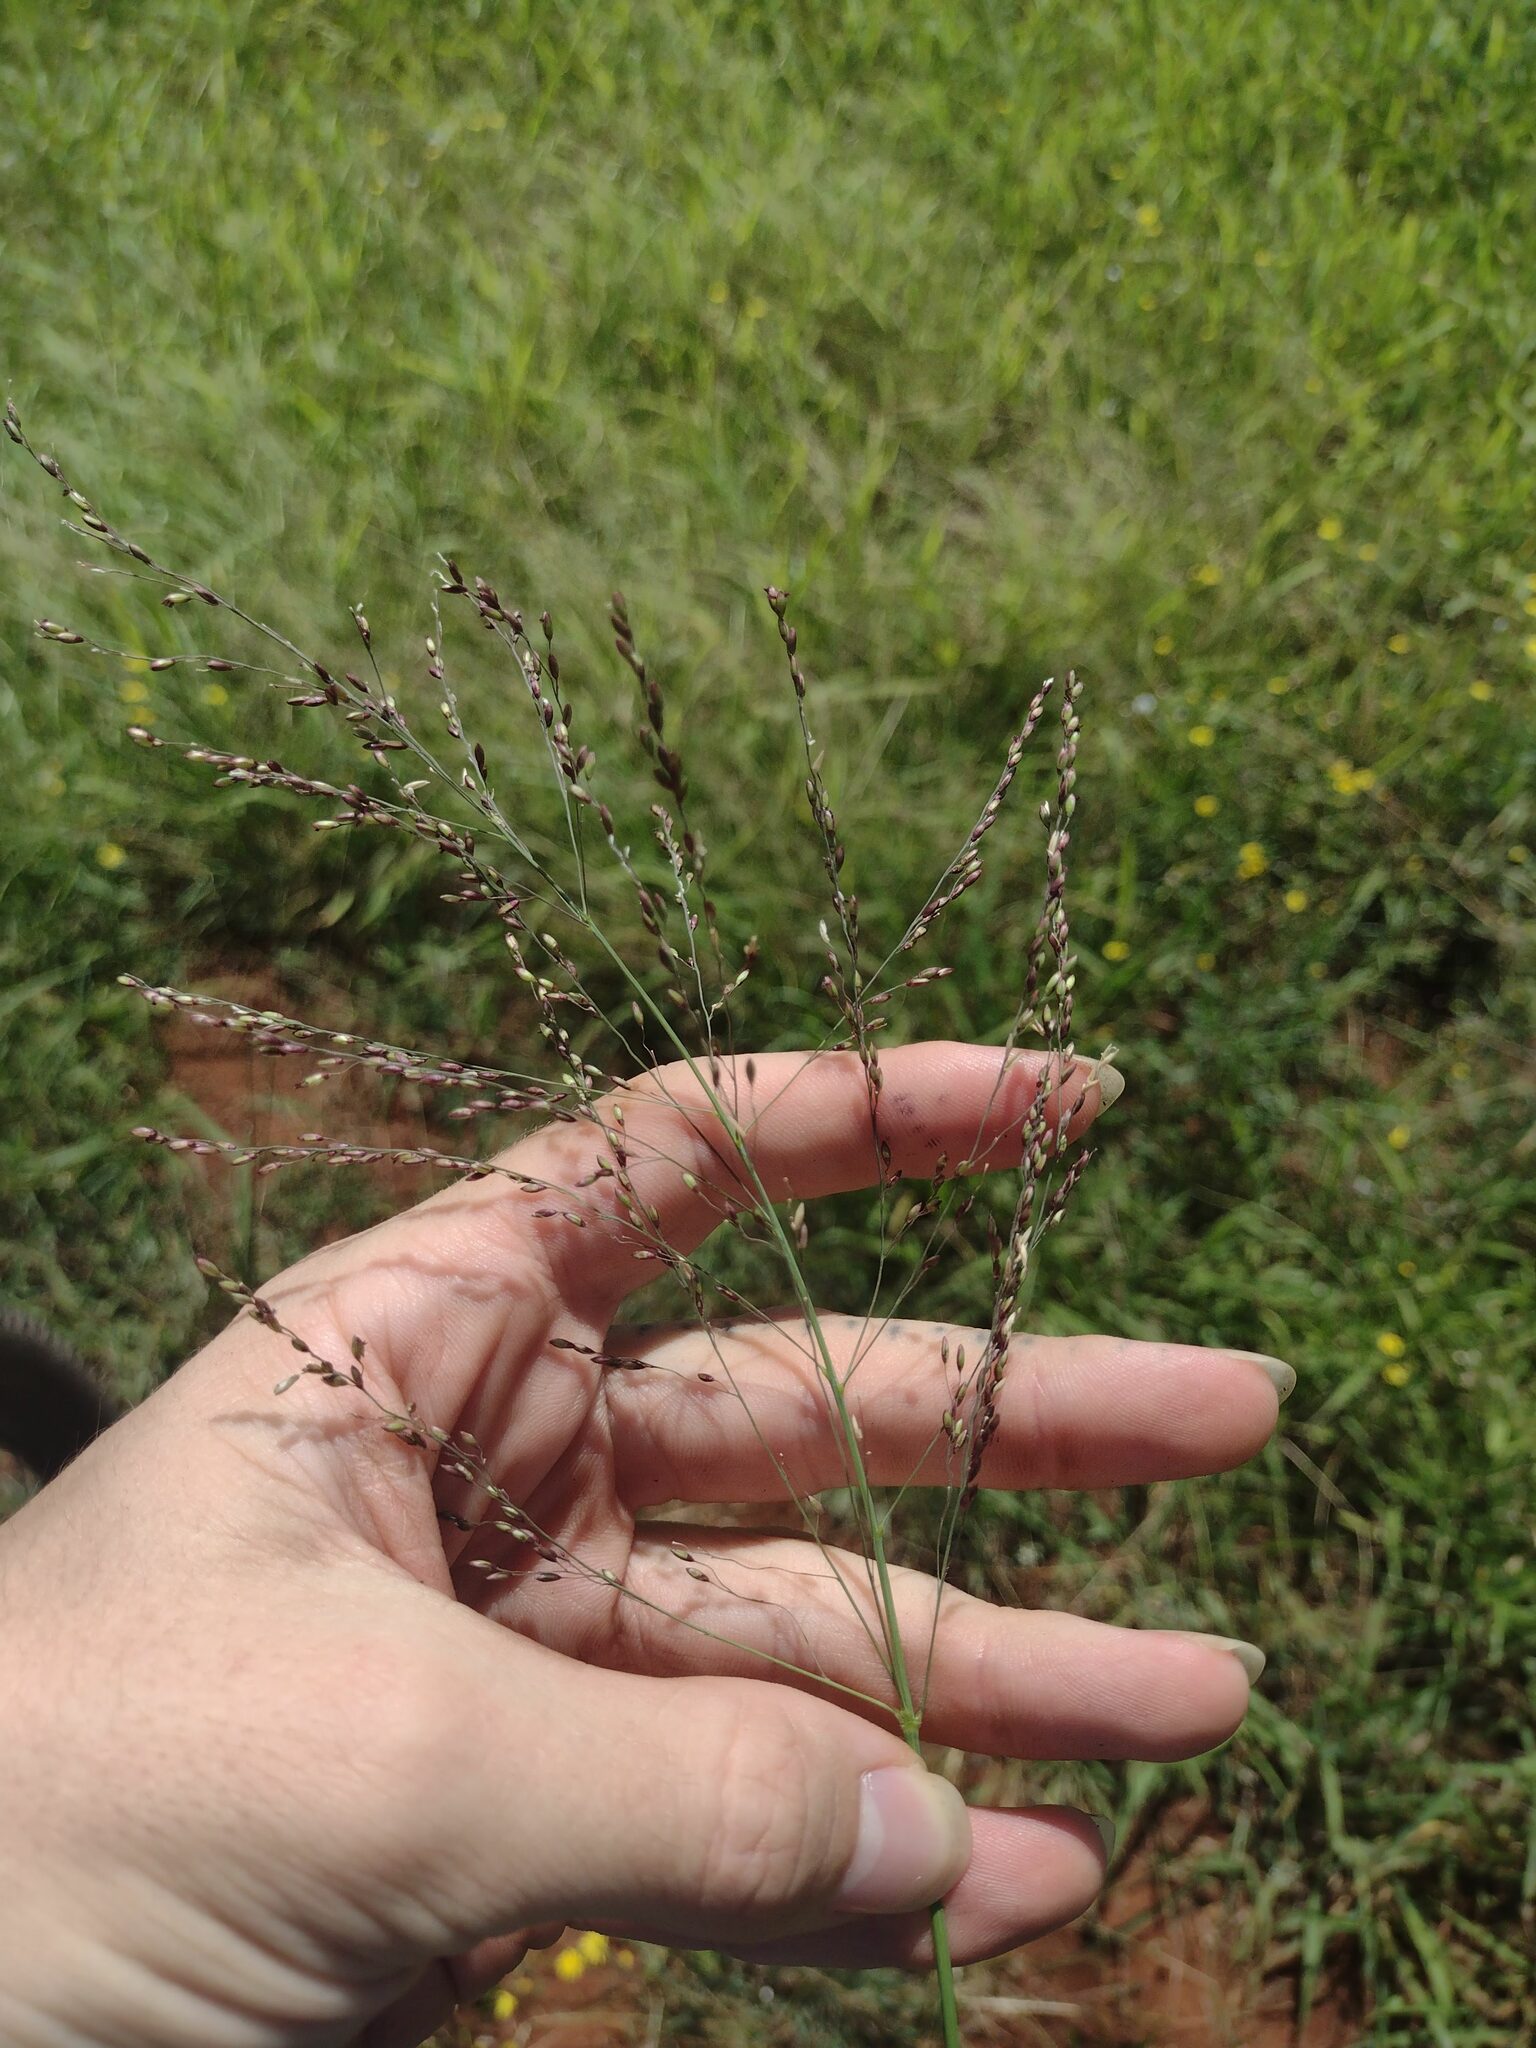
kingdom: Plantae
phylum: Tracheophyta
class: Liliopsida
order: Poales
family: Poaceae
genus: Megathyrsus
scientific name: Megathyrsus maximus
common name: Guineagrass
